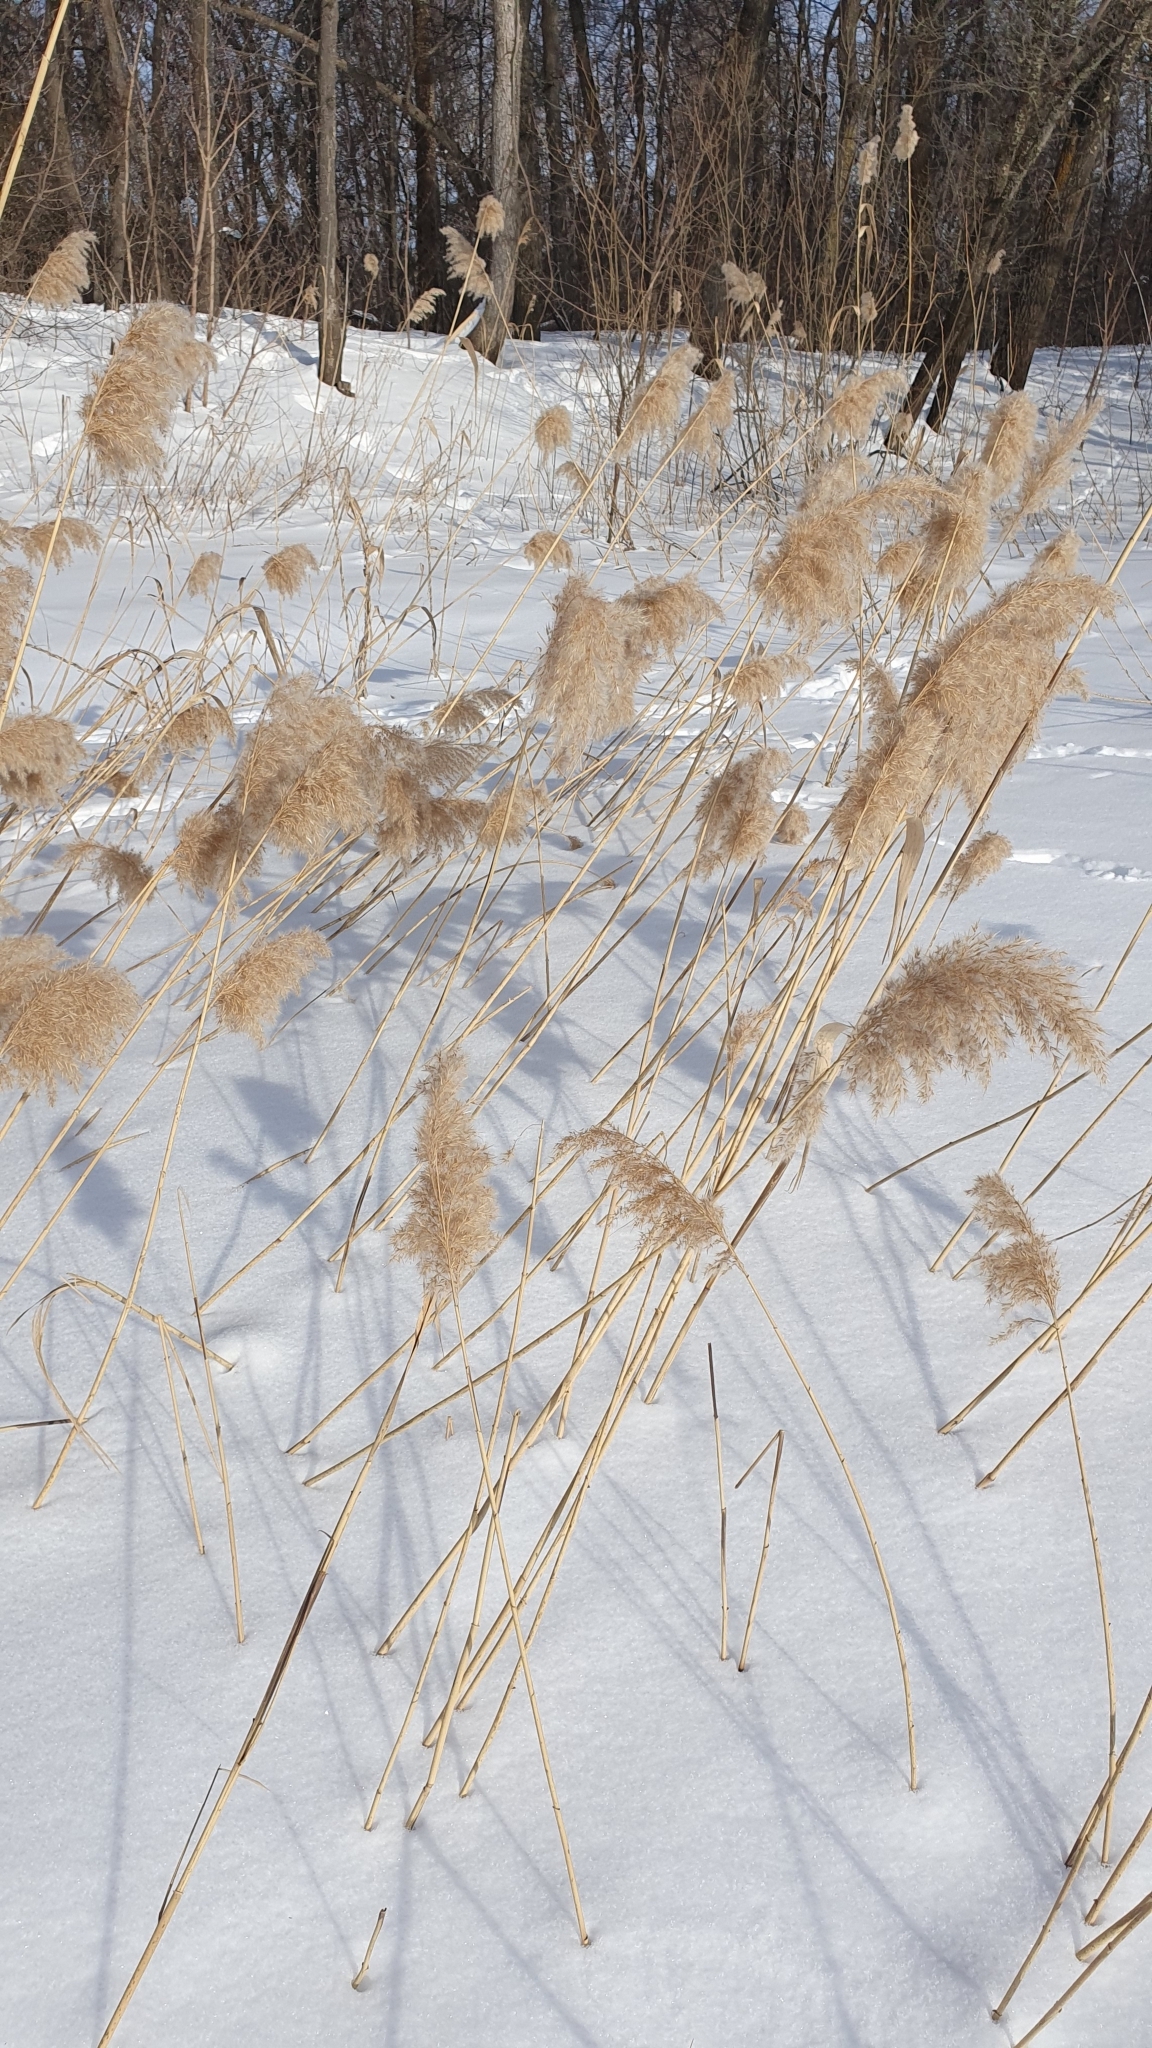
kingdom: Plantae
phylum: Tracheophyta
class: Liliopsida
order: Poales
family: Poaceae
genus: Phragmites
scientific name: Phragmites australis
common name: Common reed
